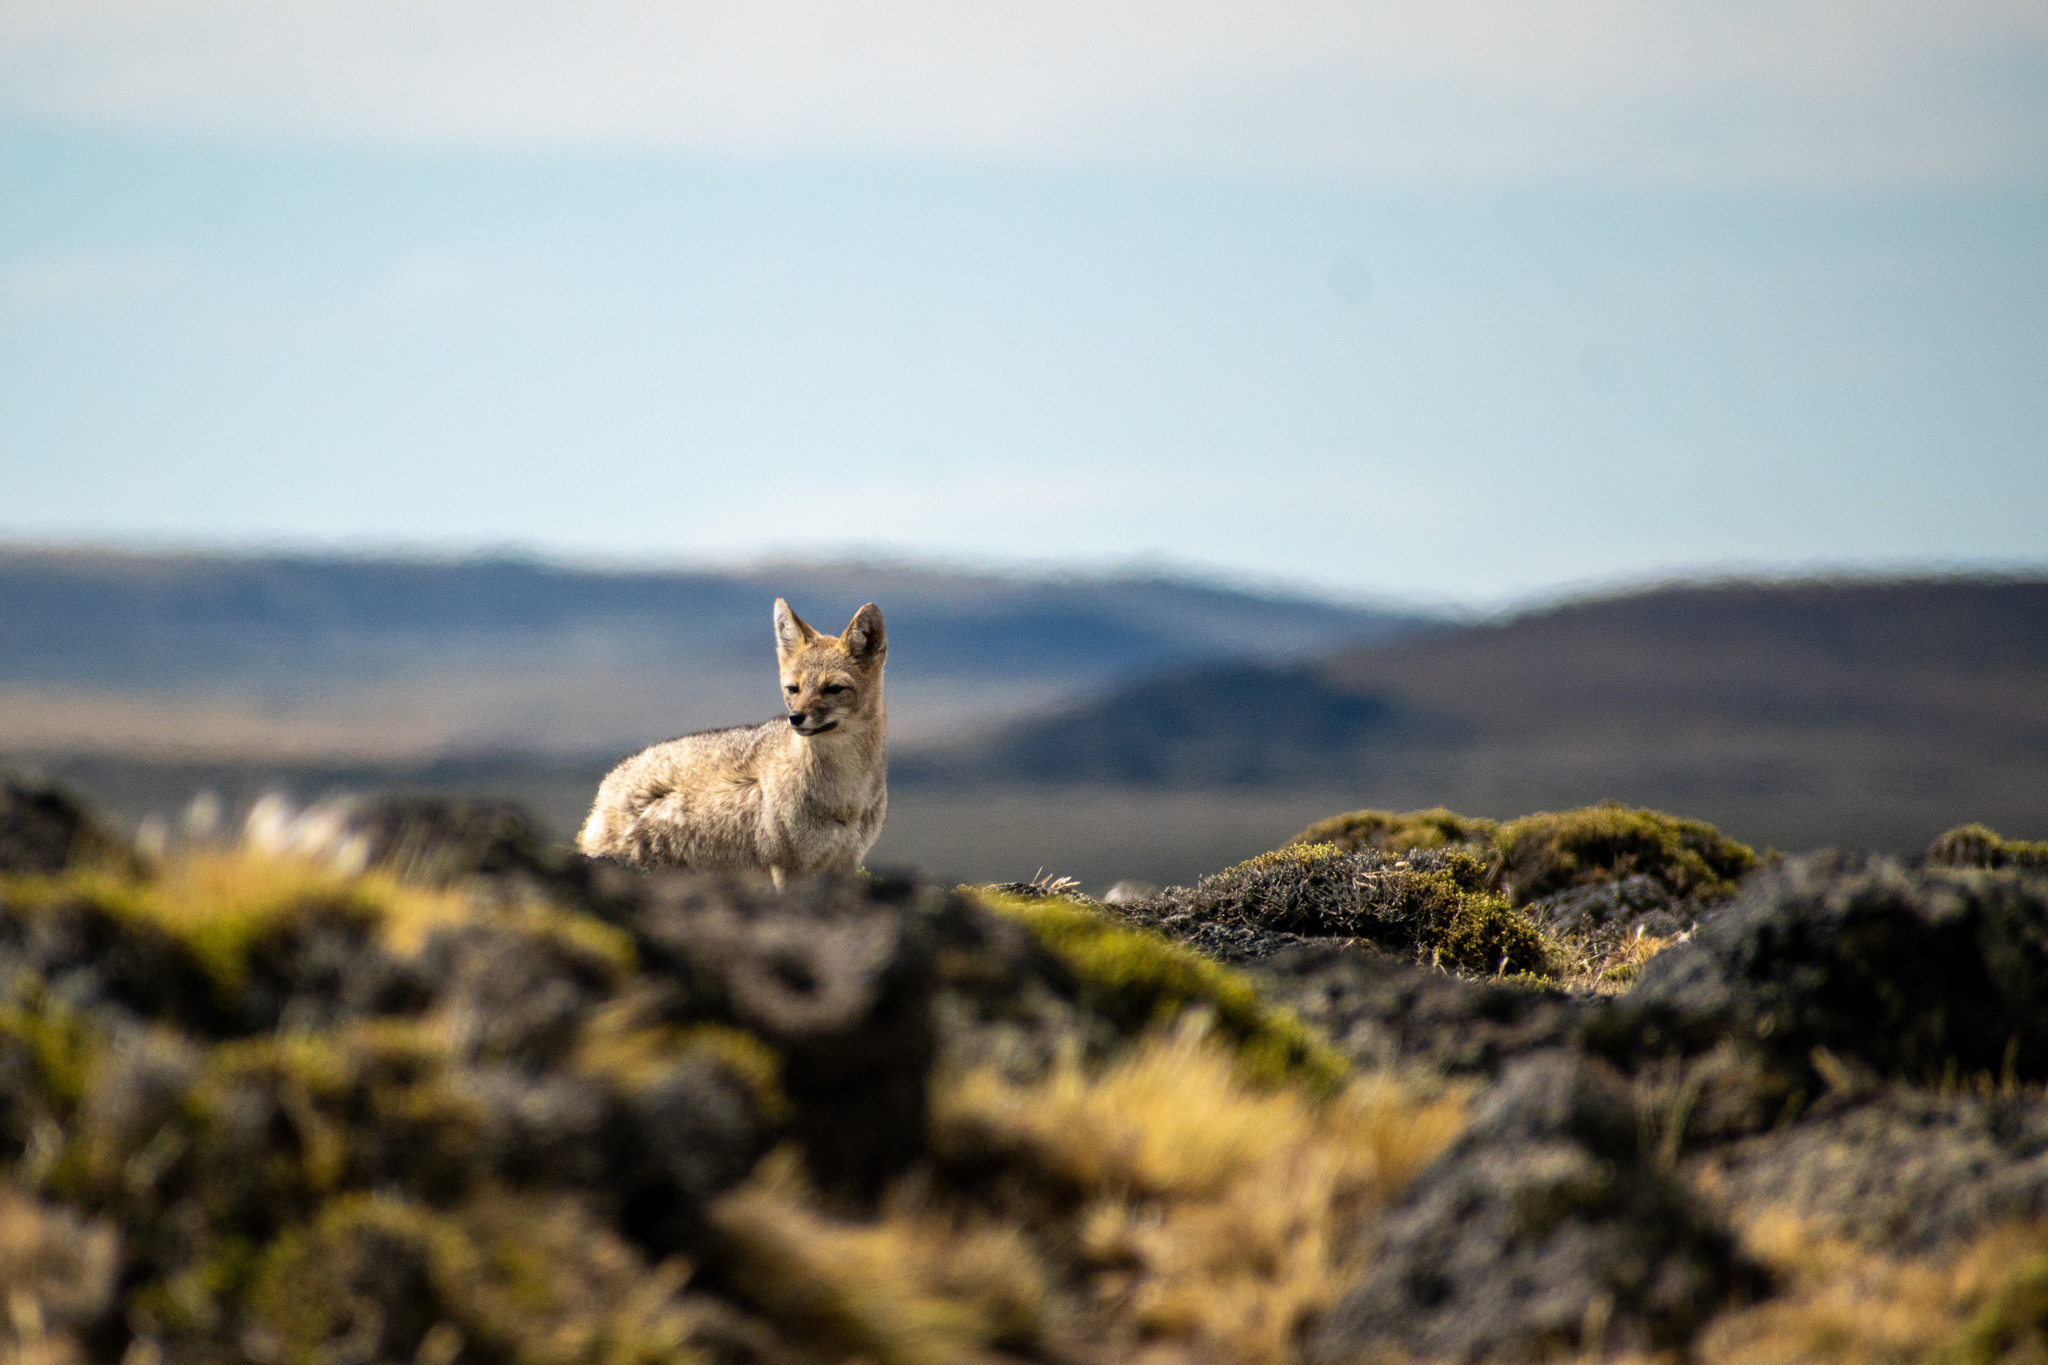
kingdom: Animalia
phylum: Chordata
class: Mammalia
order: Carnivora
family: Canidae
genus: Lycalopex
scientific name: Lycalopex gymnocercus
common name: Pampas fox
